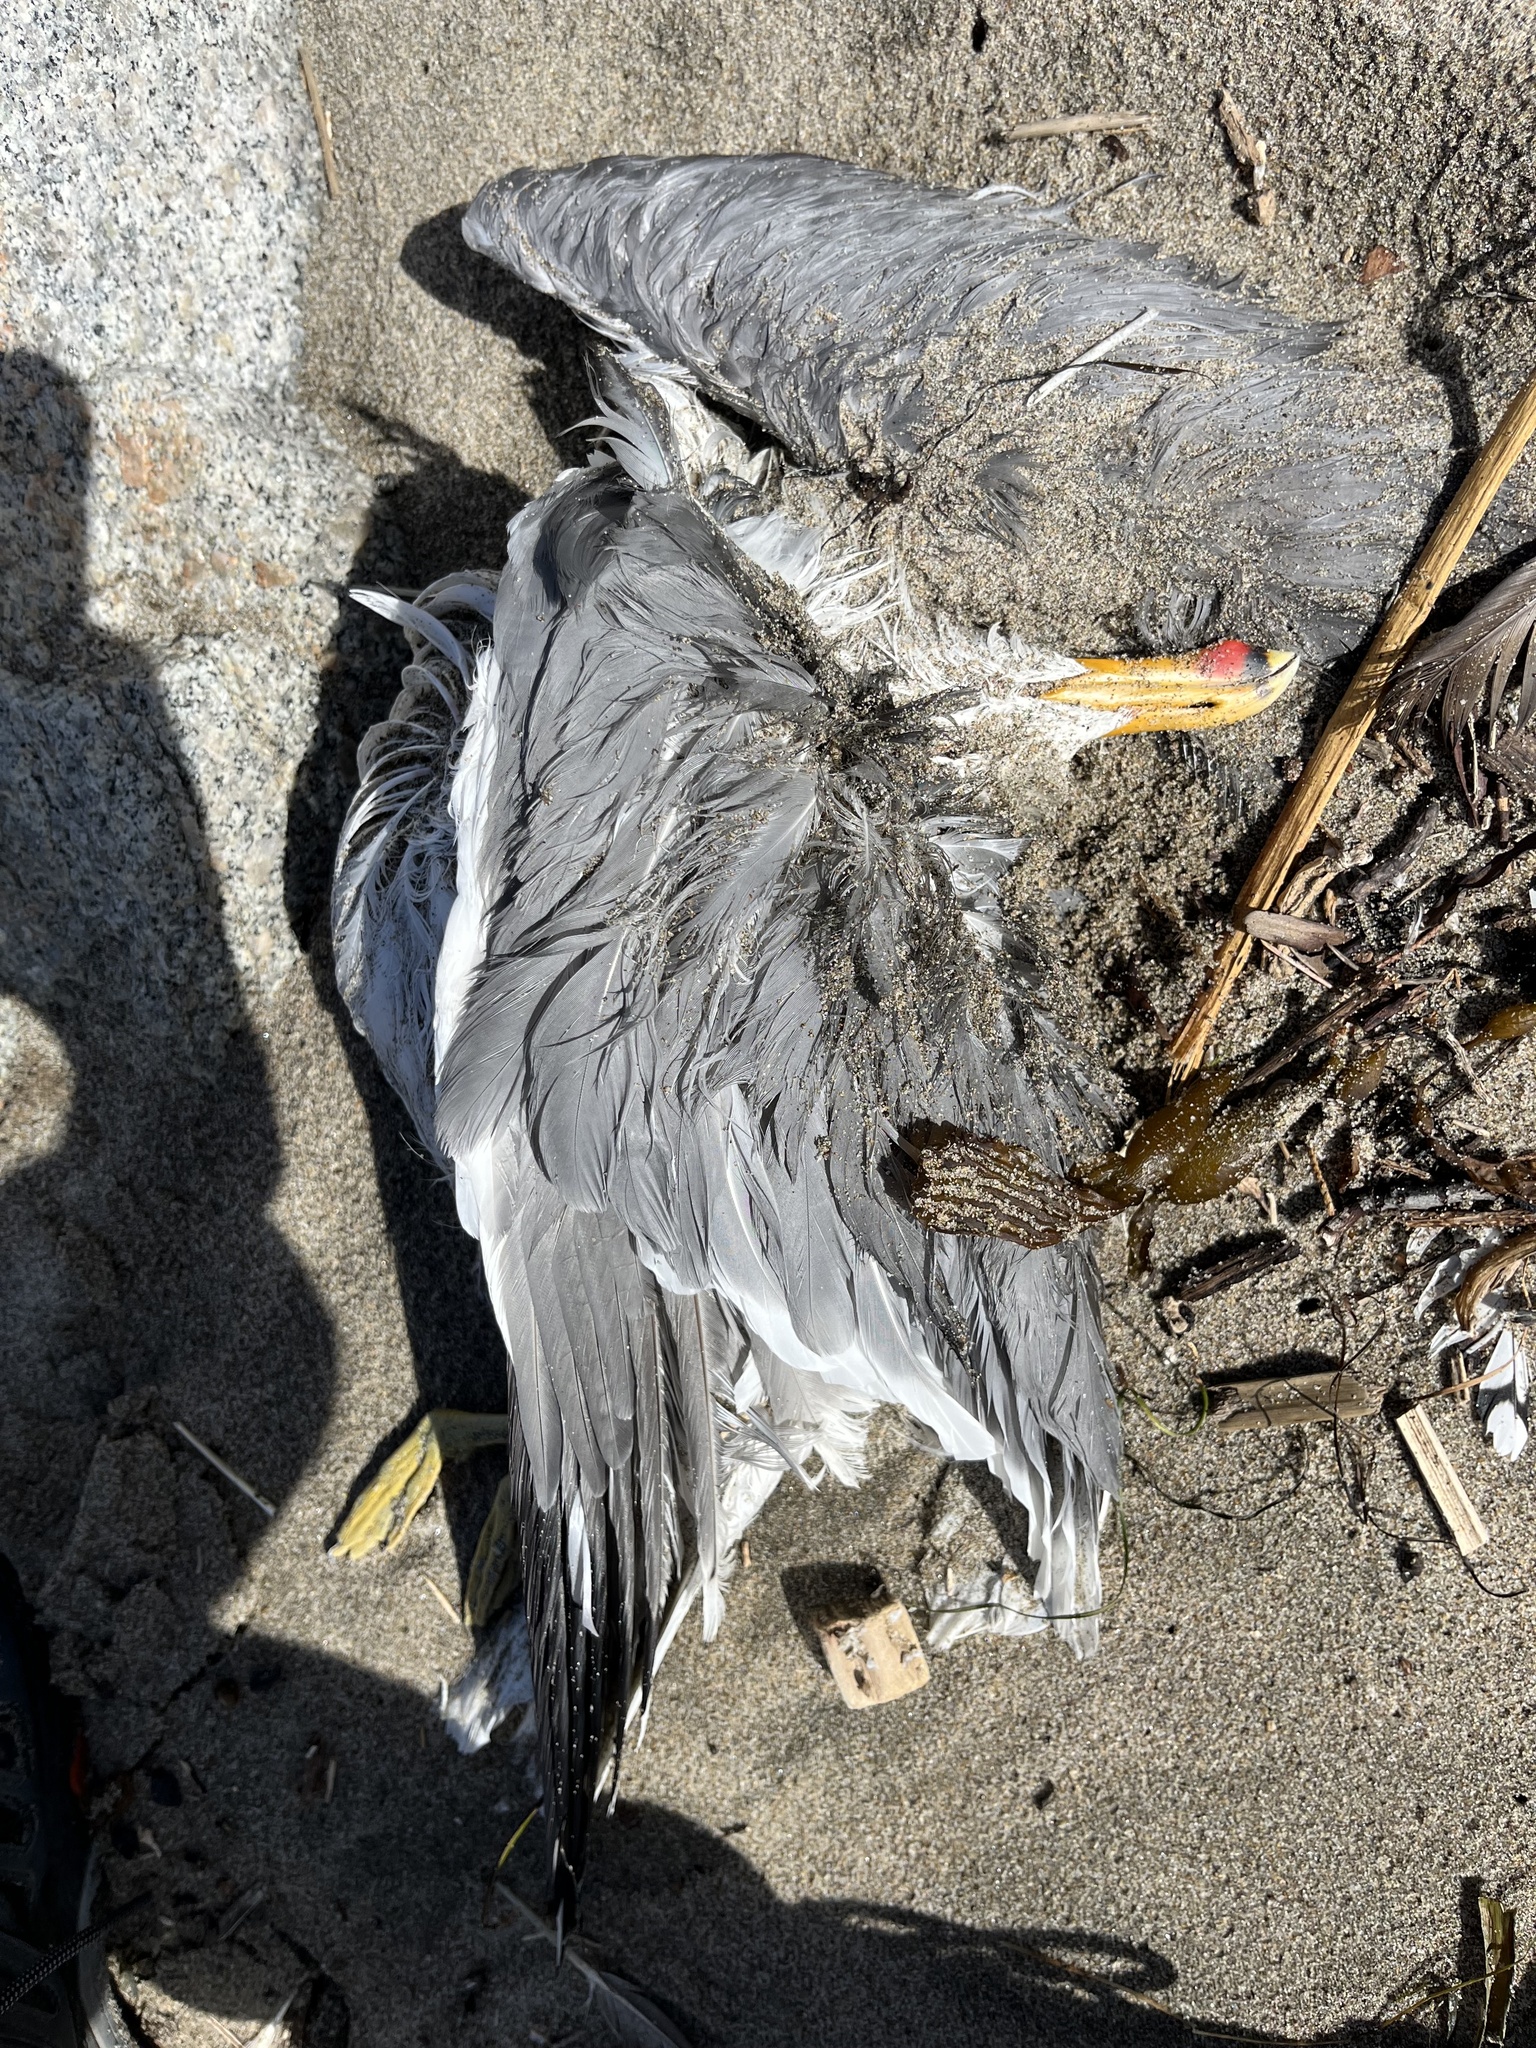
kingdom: Animalia
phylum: Chordata
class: Aves
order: Charadriiformes
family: Laridae
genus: Larus
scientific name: Larus californicus
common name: California gull
